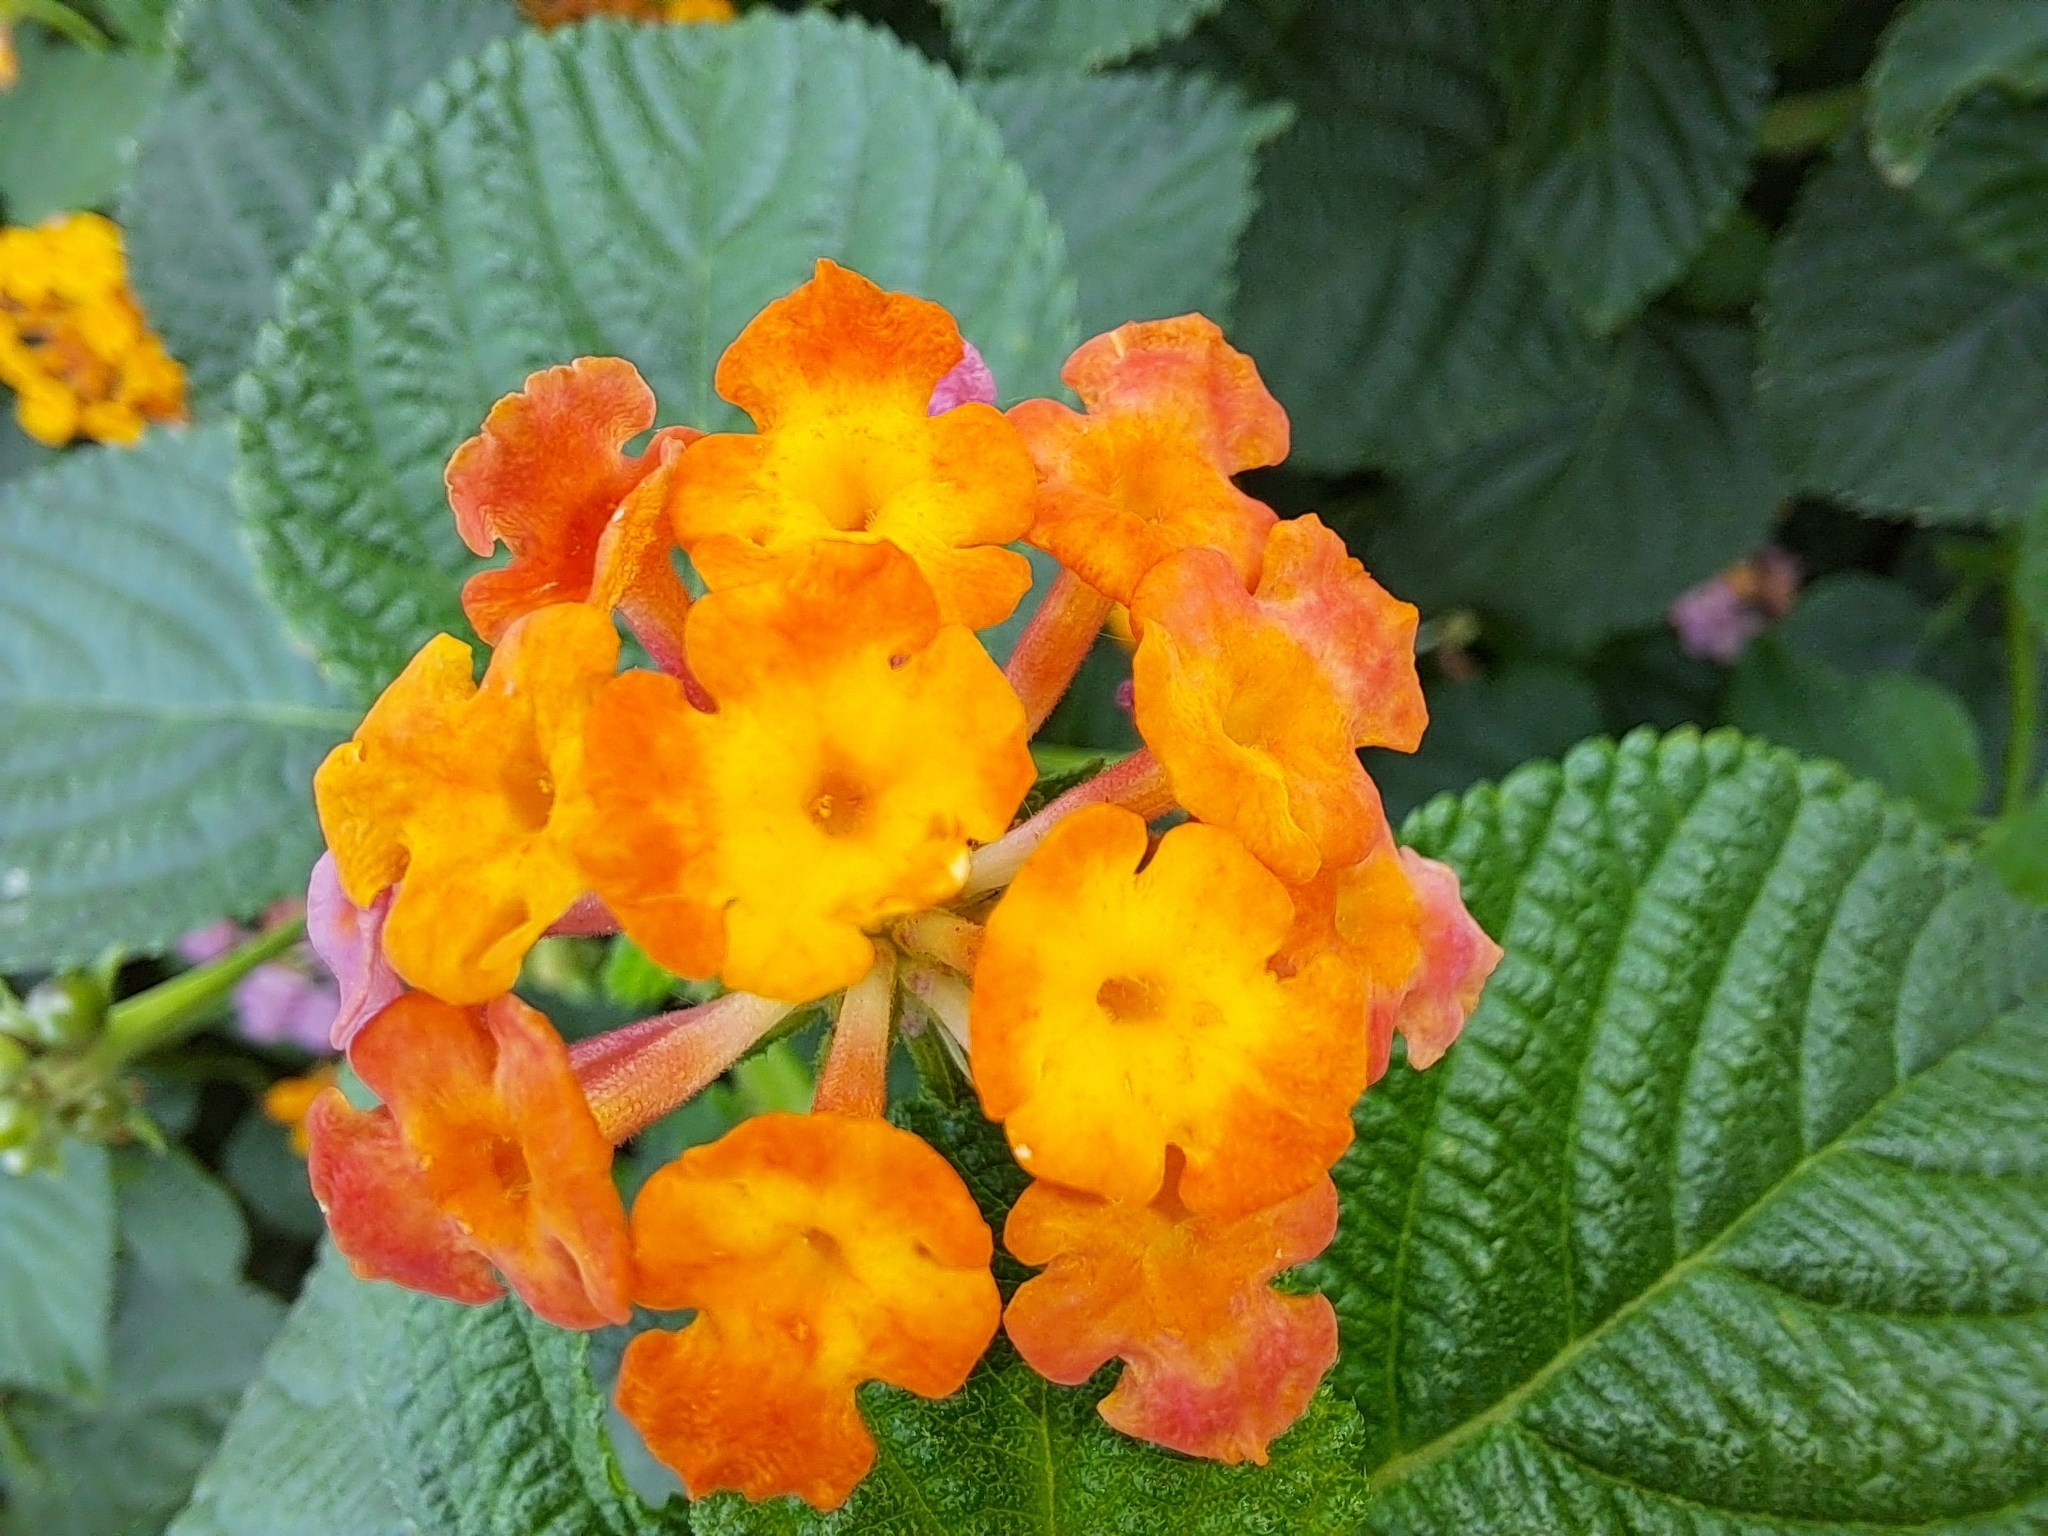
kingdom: Plantae
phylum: Tracheophyta
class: Magnoliopsida
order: Lamiales
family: Verbenaceae
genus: Lantana
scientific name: Lantana camara
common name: Lantana
